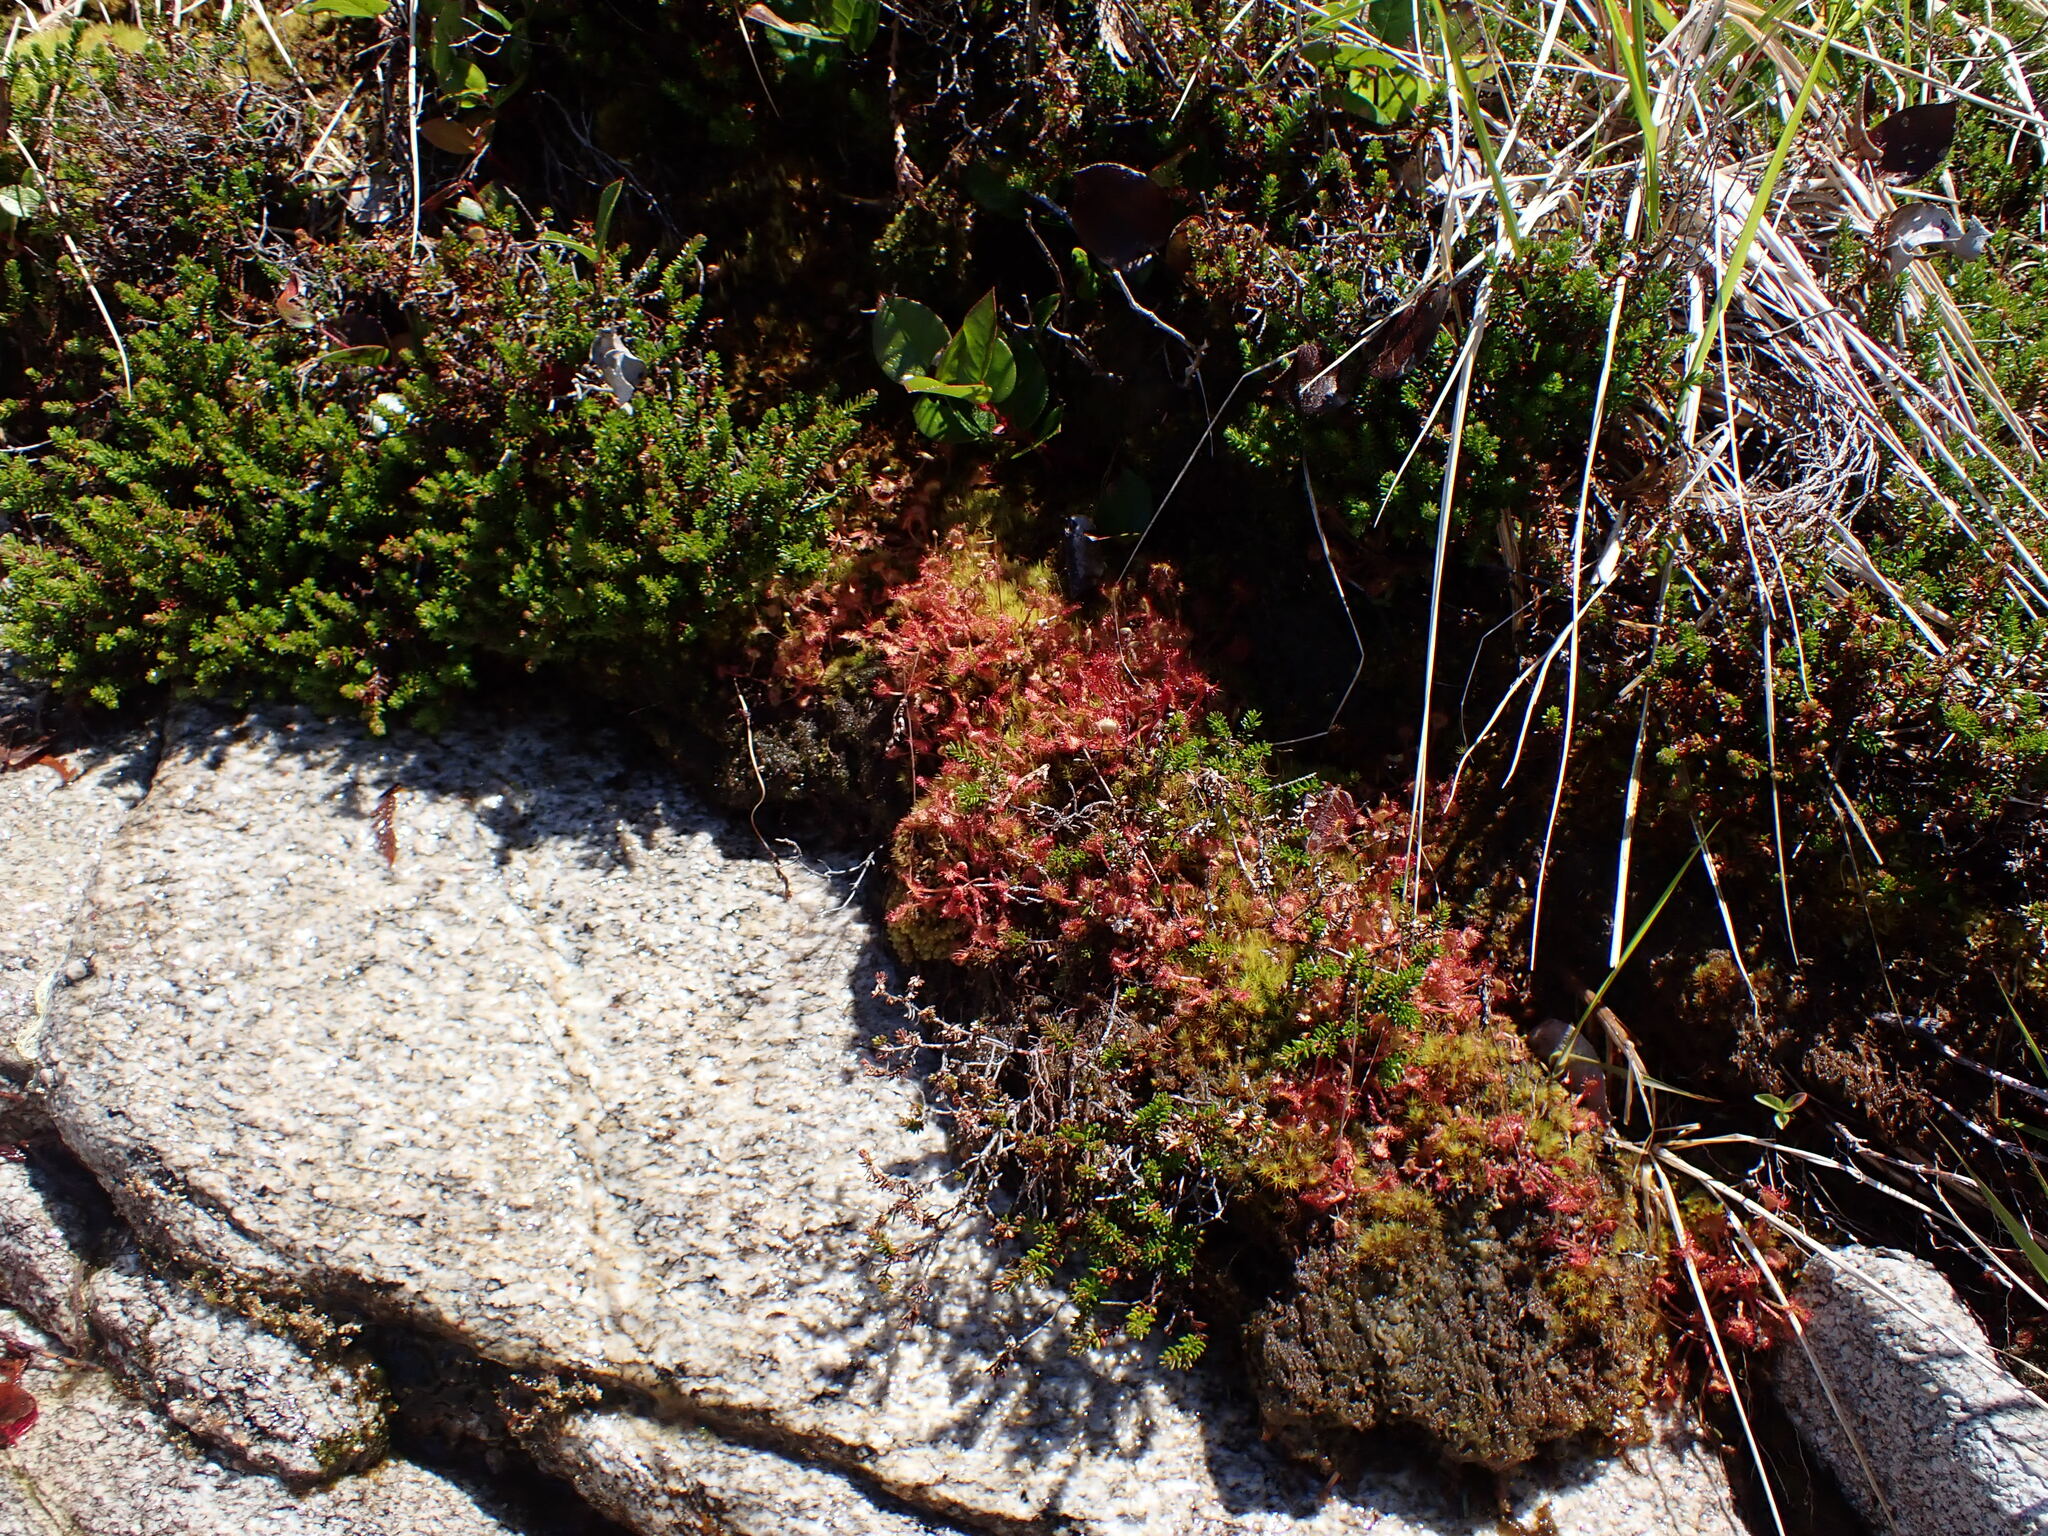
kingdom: Plantae
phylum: Tracheophyta
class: Magnoliopsida
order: Caryophyllales
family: Droseraceae
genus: Drosera
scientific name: Drosera rotundifolia
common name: Round-leaved sundew
